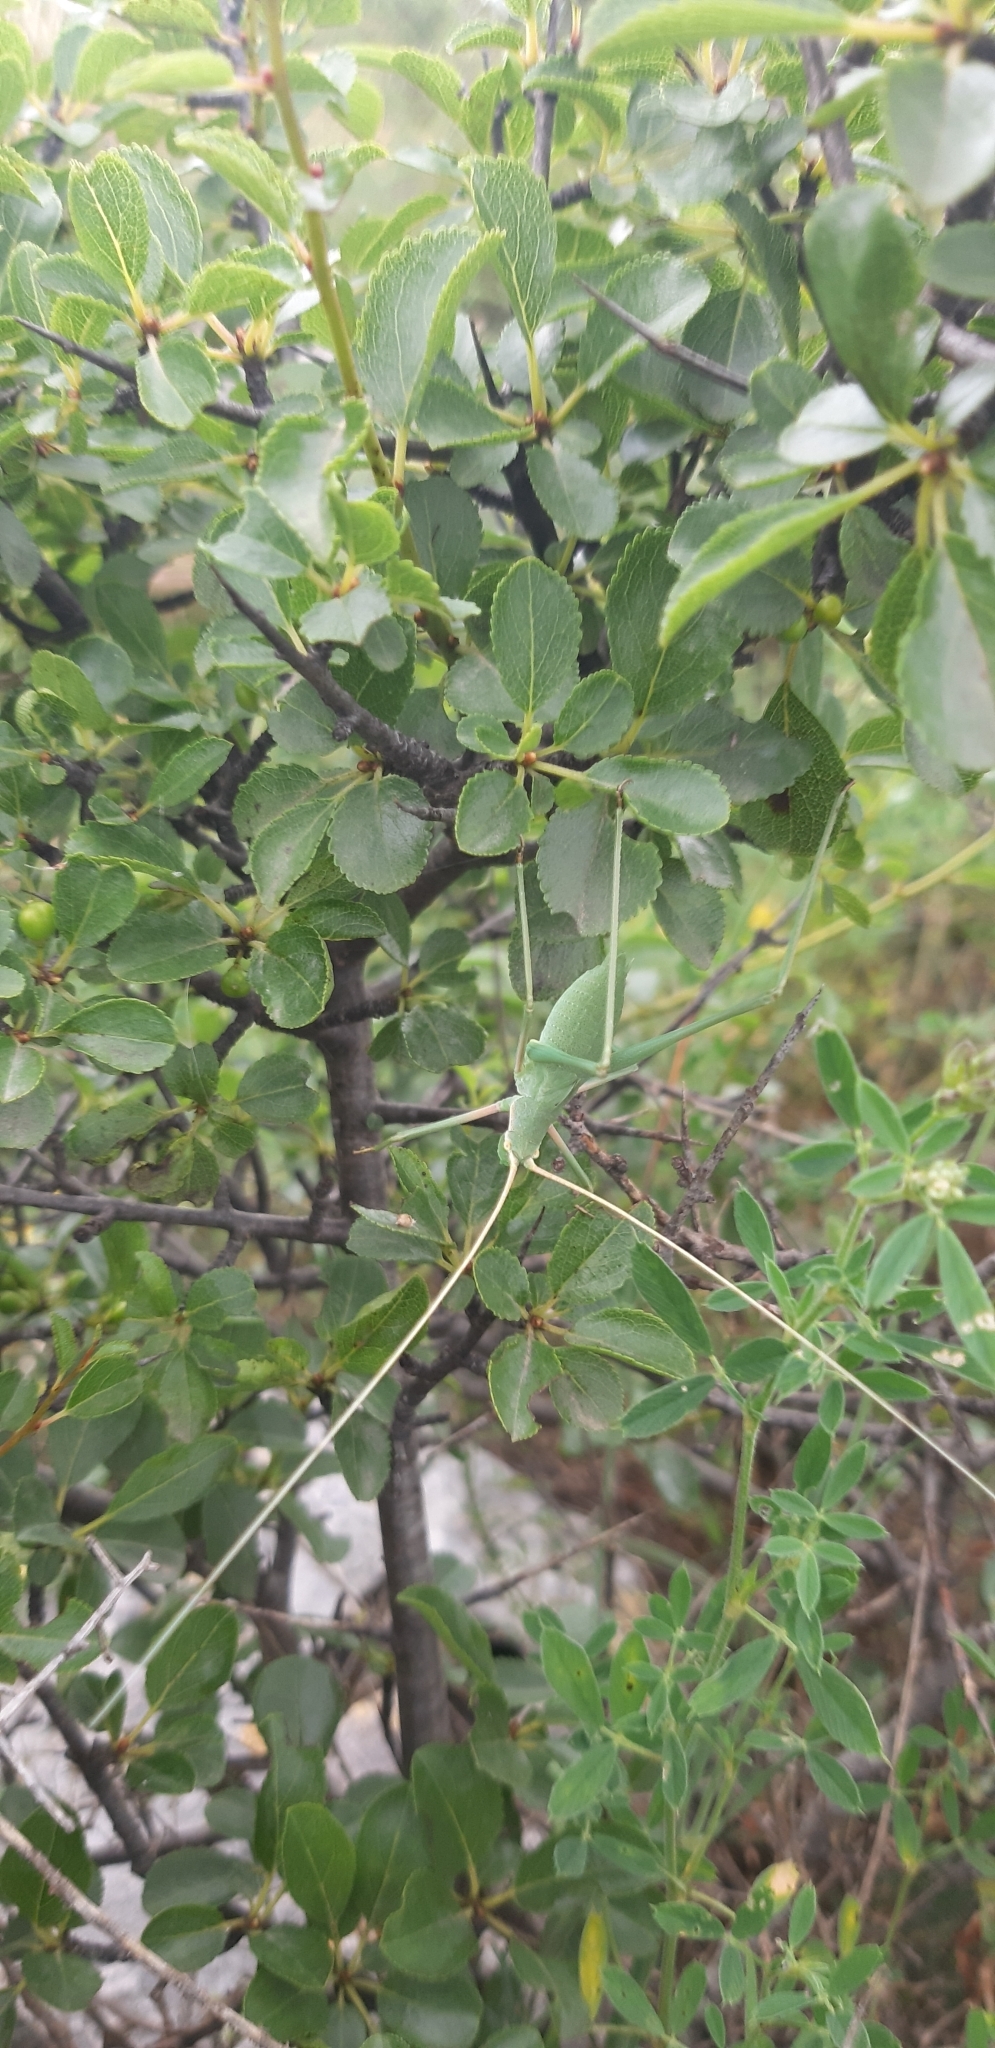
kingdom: Animalia
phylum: Arthropoda
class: Insecta
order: Orthoptera
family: Tettigoniidae
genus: Acrometopa
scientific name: Acrometopa italica
